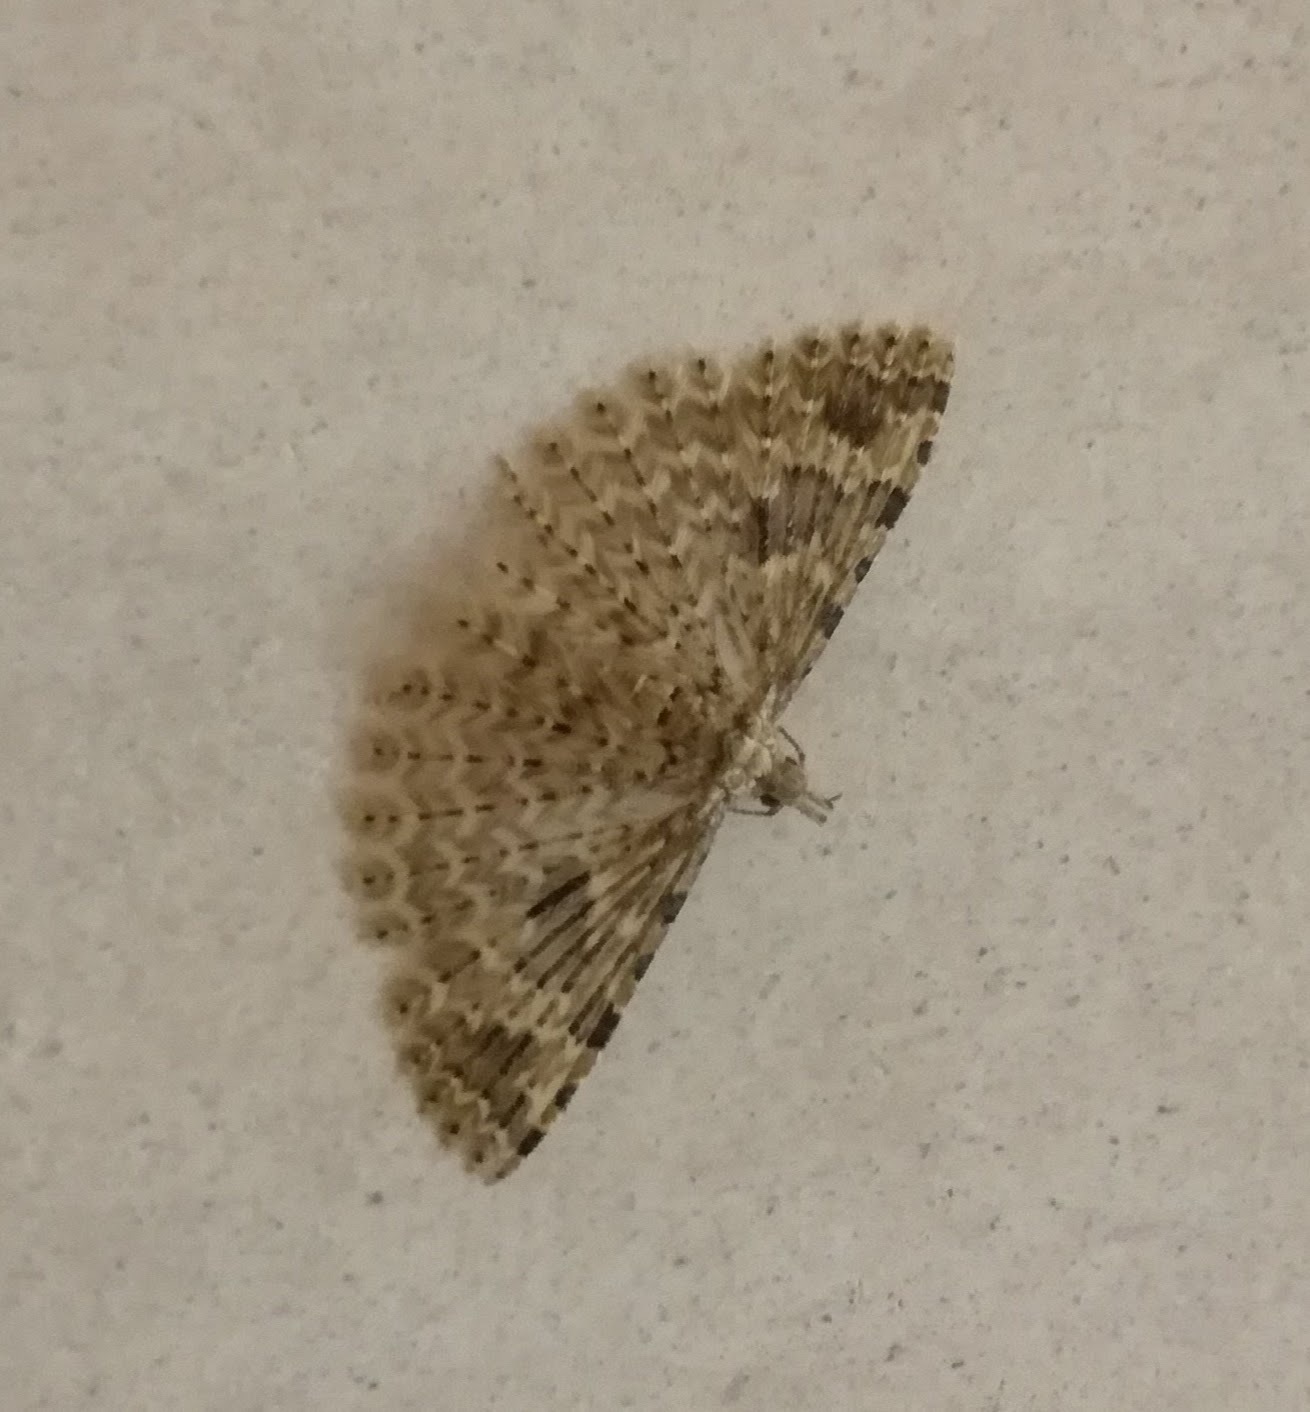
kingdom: Animalia
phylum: Arthropoda
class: Insecta
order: Lepidoptera
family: Alucitidae
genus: Alucita
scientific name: Alucita hexadactyla
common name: Twenty-plume moth
